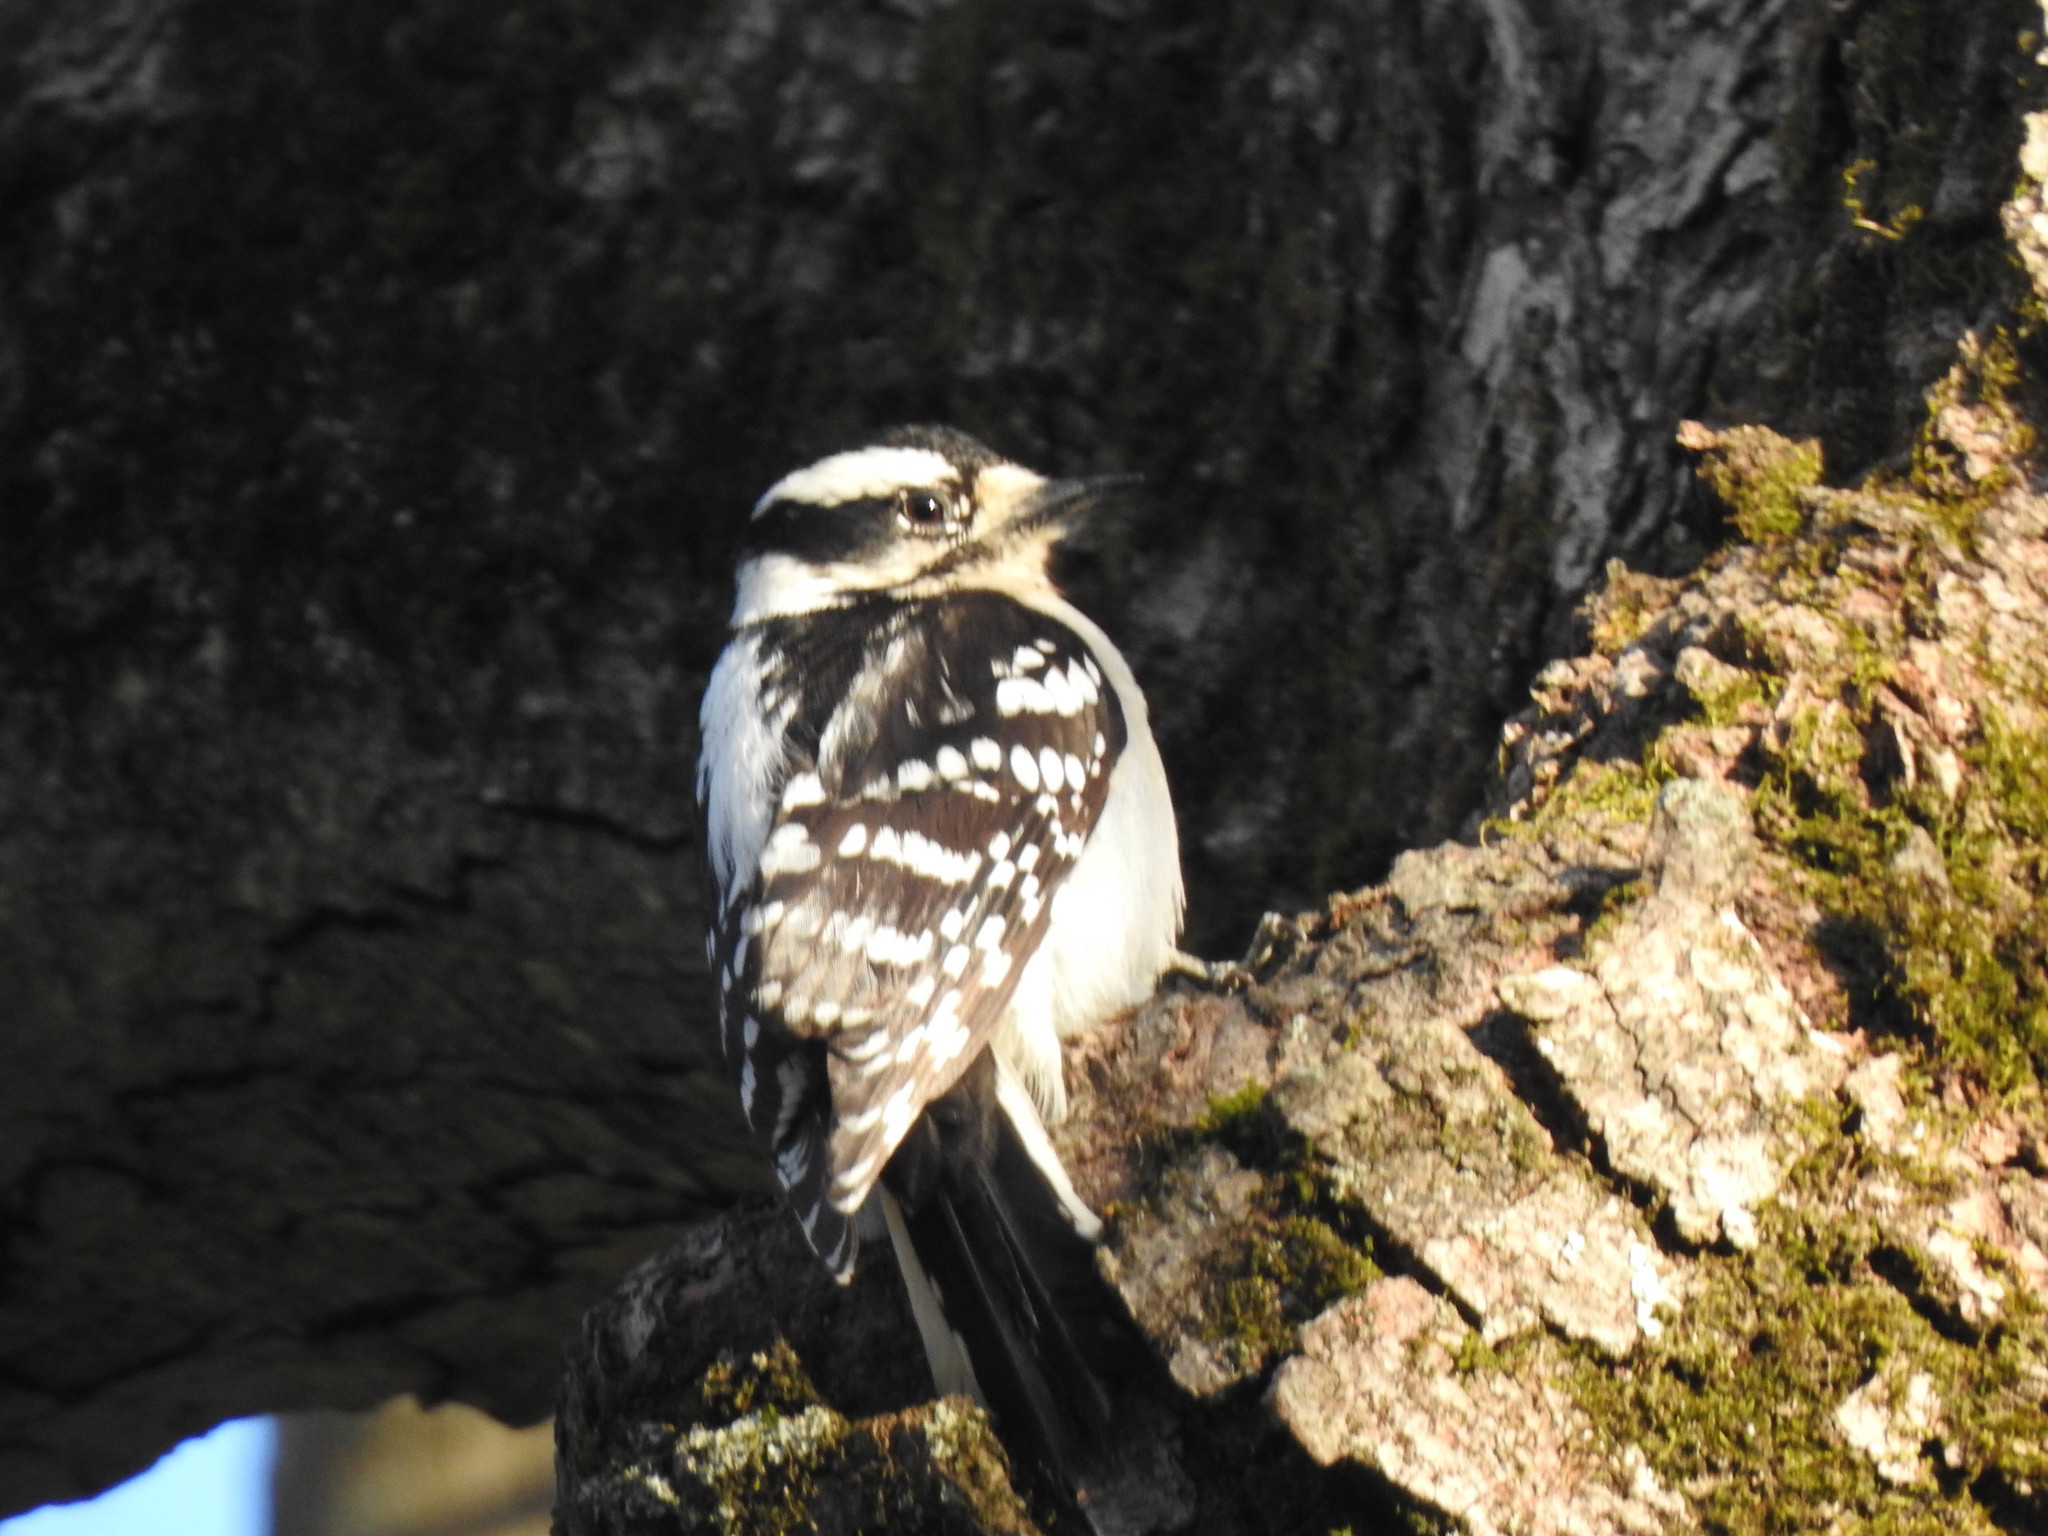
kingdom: Animalia
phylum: Chordata
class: Aves
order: Piciformes
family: Picidae
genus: Dryobates
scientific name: Dryobates pubescens
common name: Downy woodpecker
